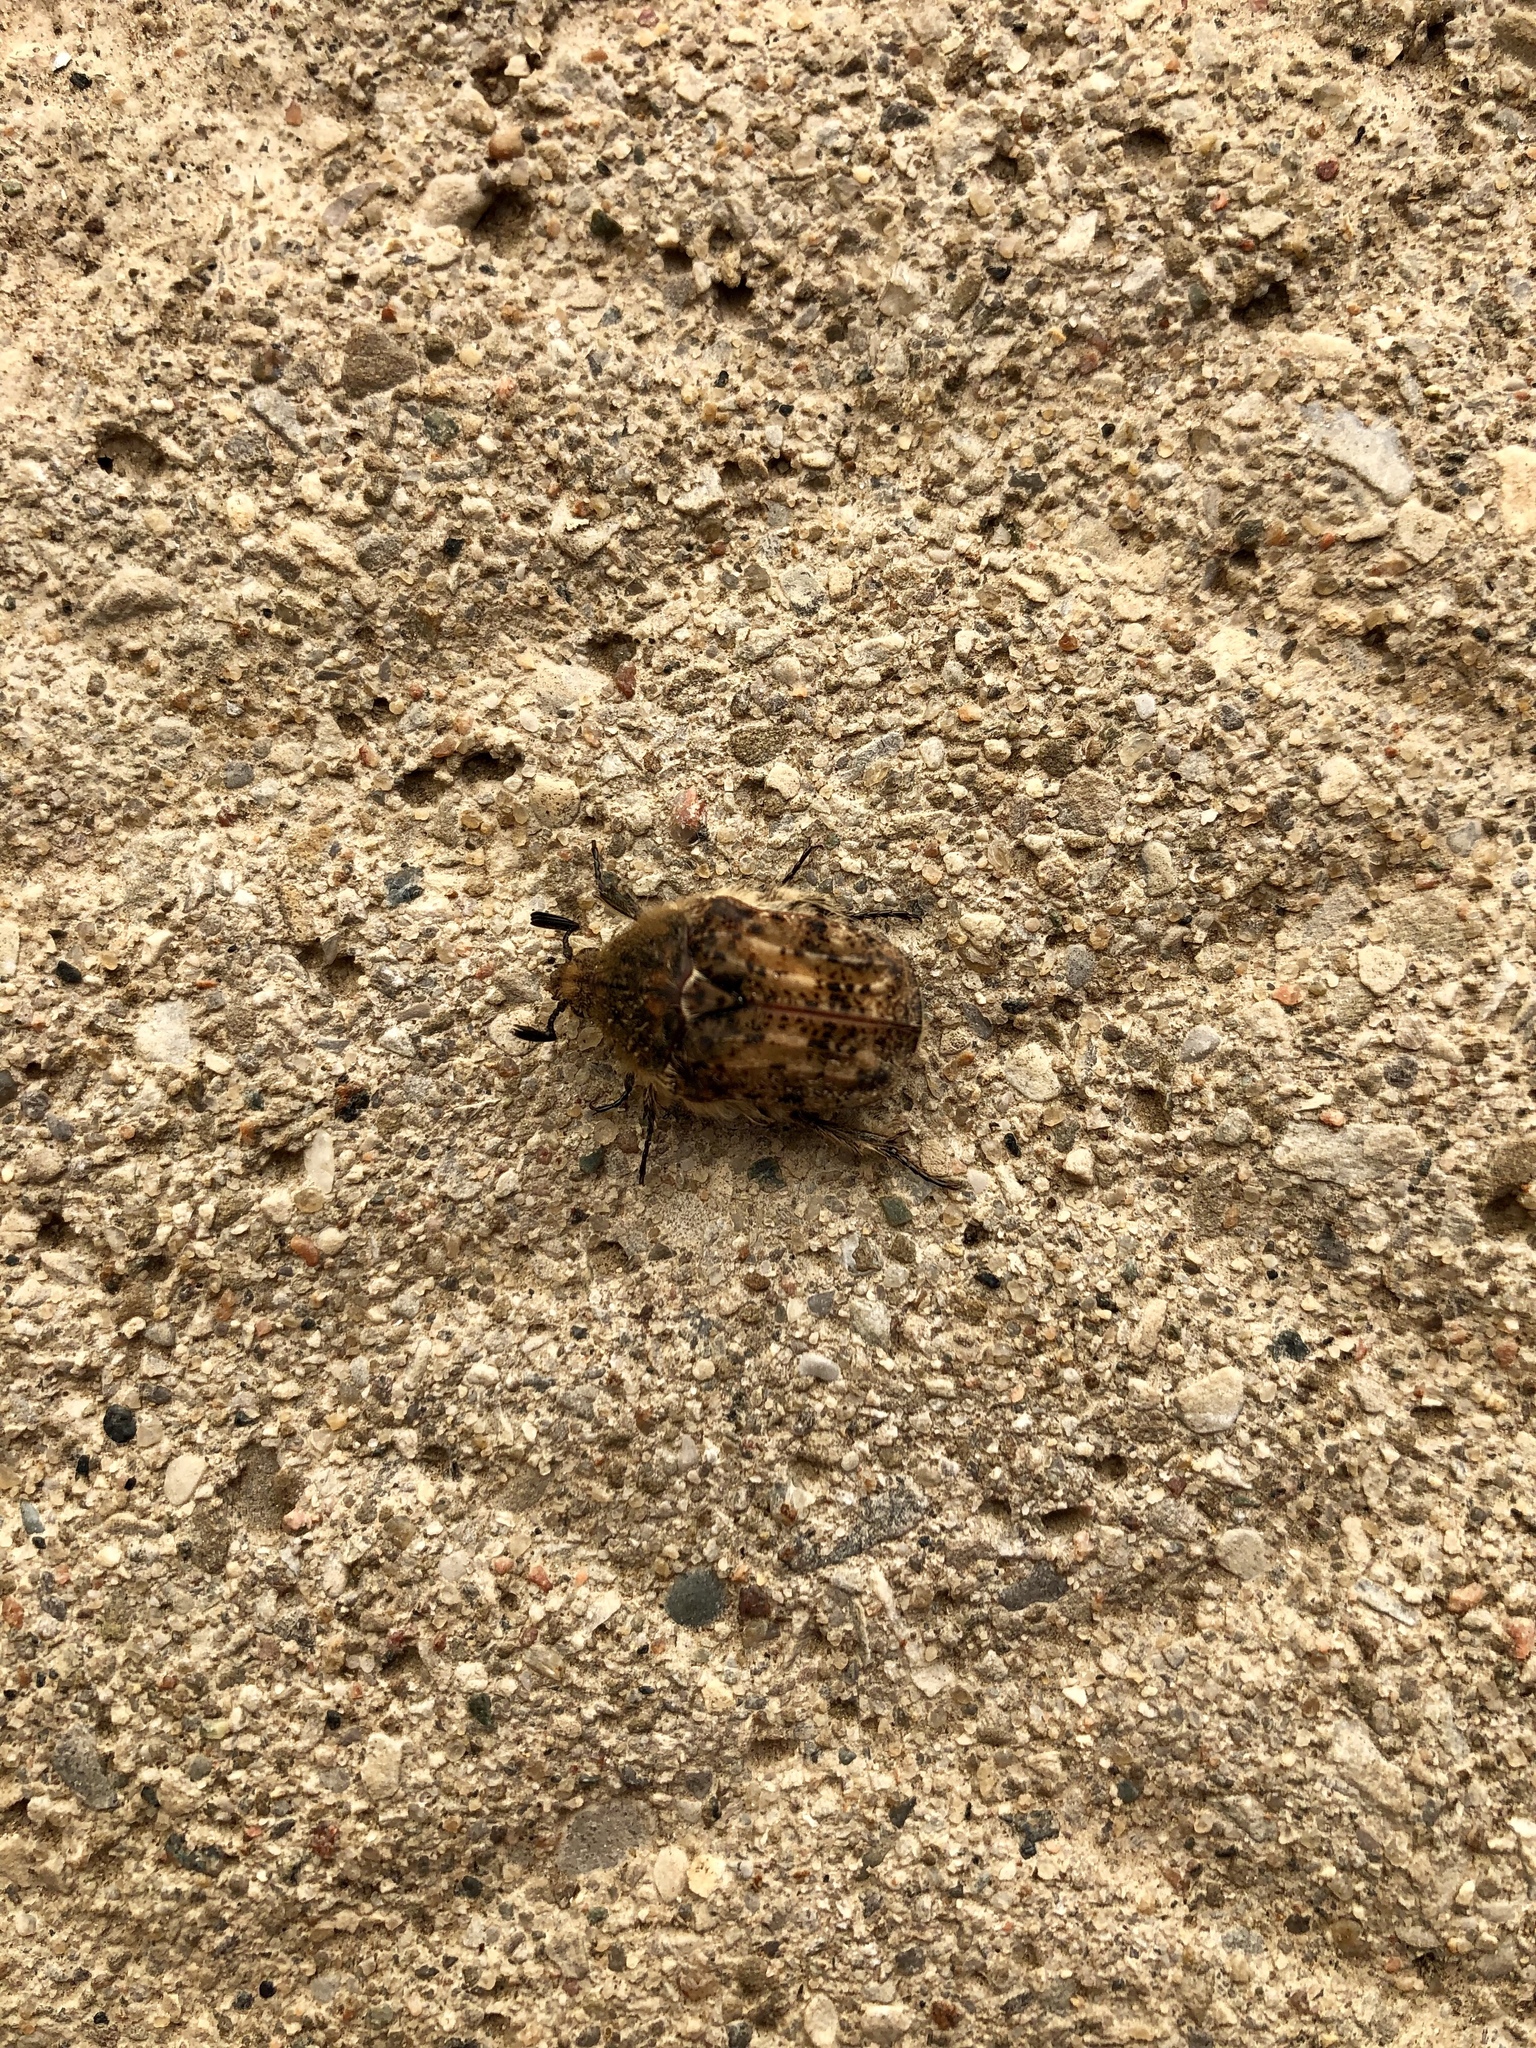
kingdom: Animalia
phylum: Arthropoda
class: Insecta
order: Coleoptera
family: Scarabaeidae
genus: Euphoria
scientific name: Euphoria inda
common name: Bumble flower beetle
